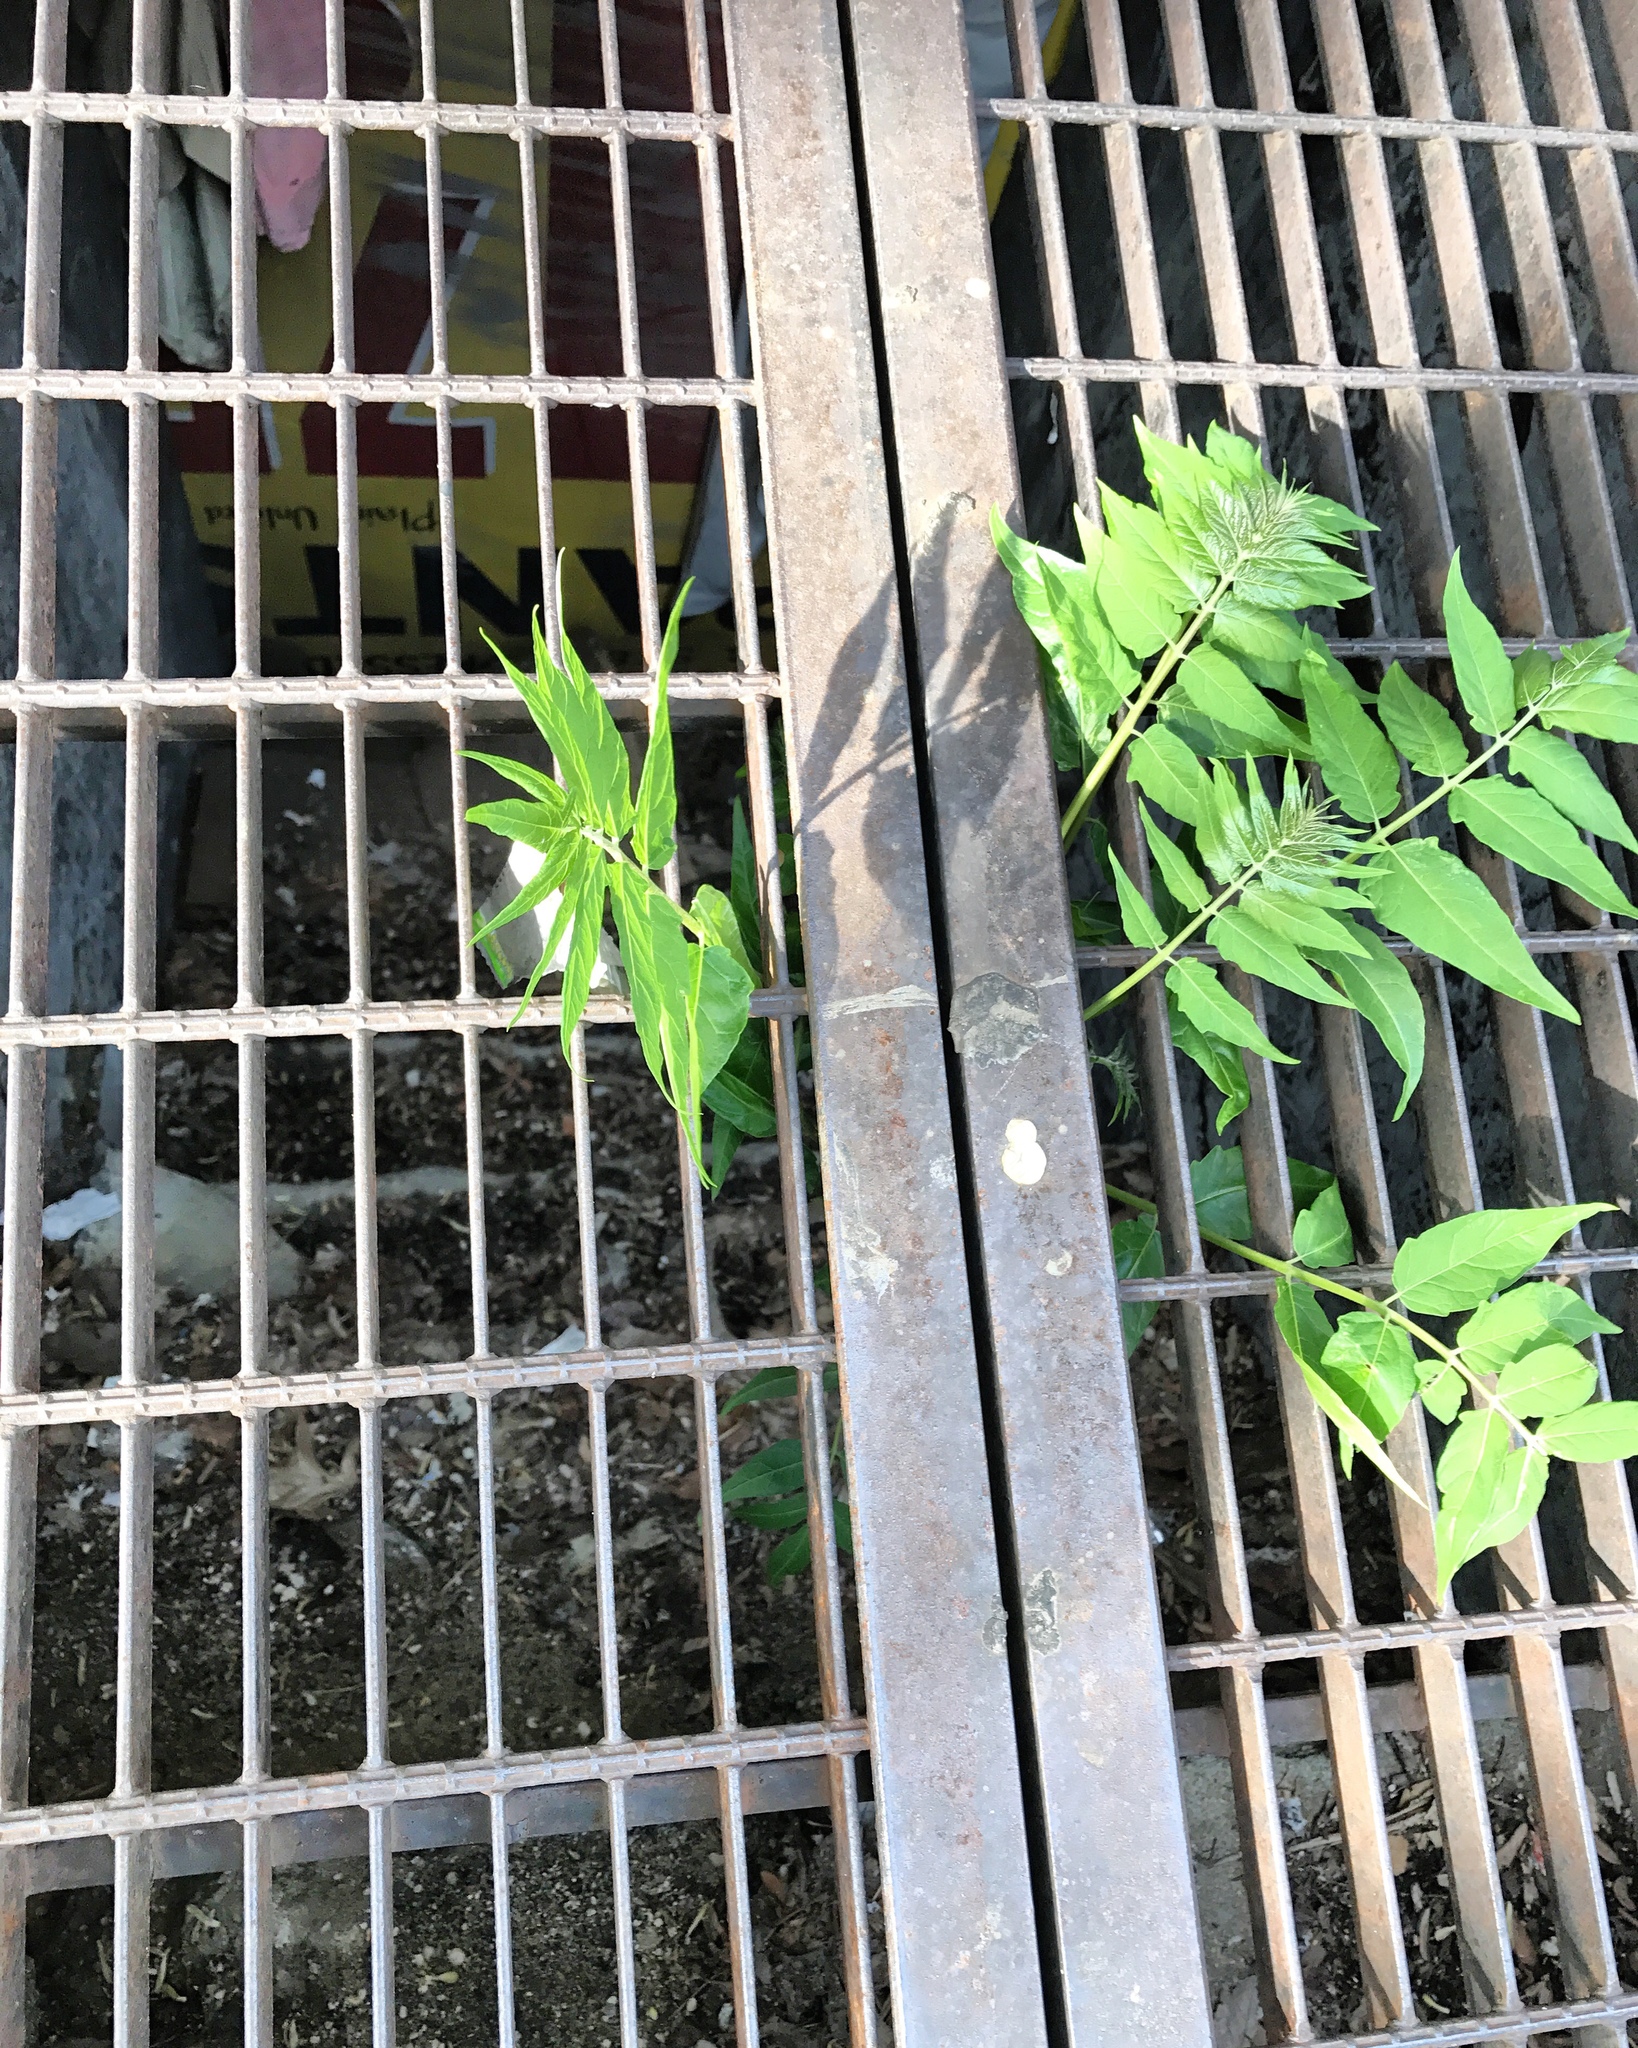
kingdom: Plantae
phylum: Tracheophyta
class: Magnoliopsida
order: Sapindales
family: Simaroubaceae
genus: Ailanthus
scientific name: Ailanthus altissima
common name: Tree-of-heaven
